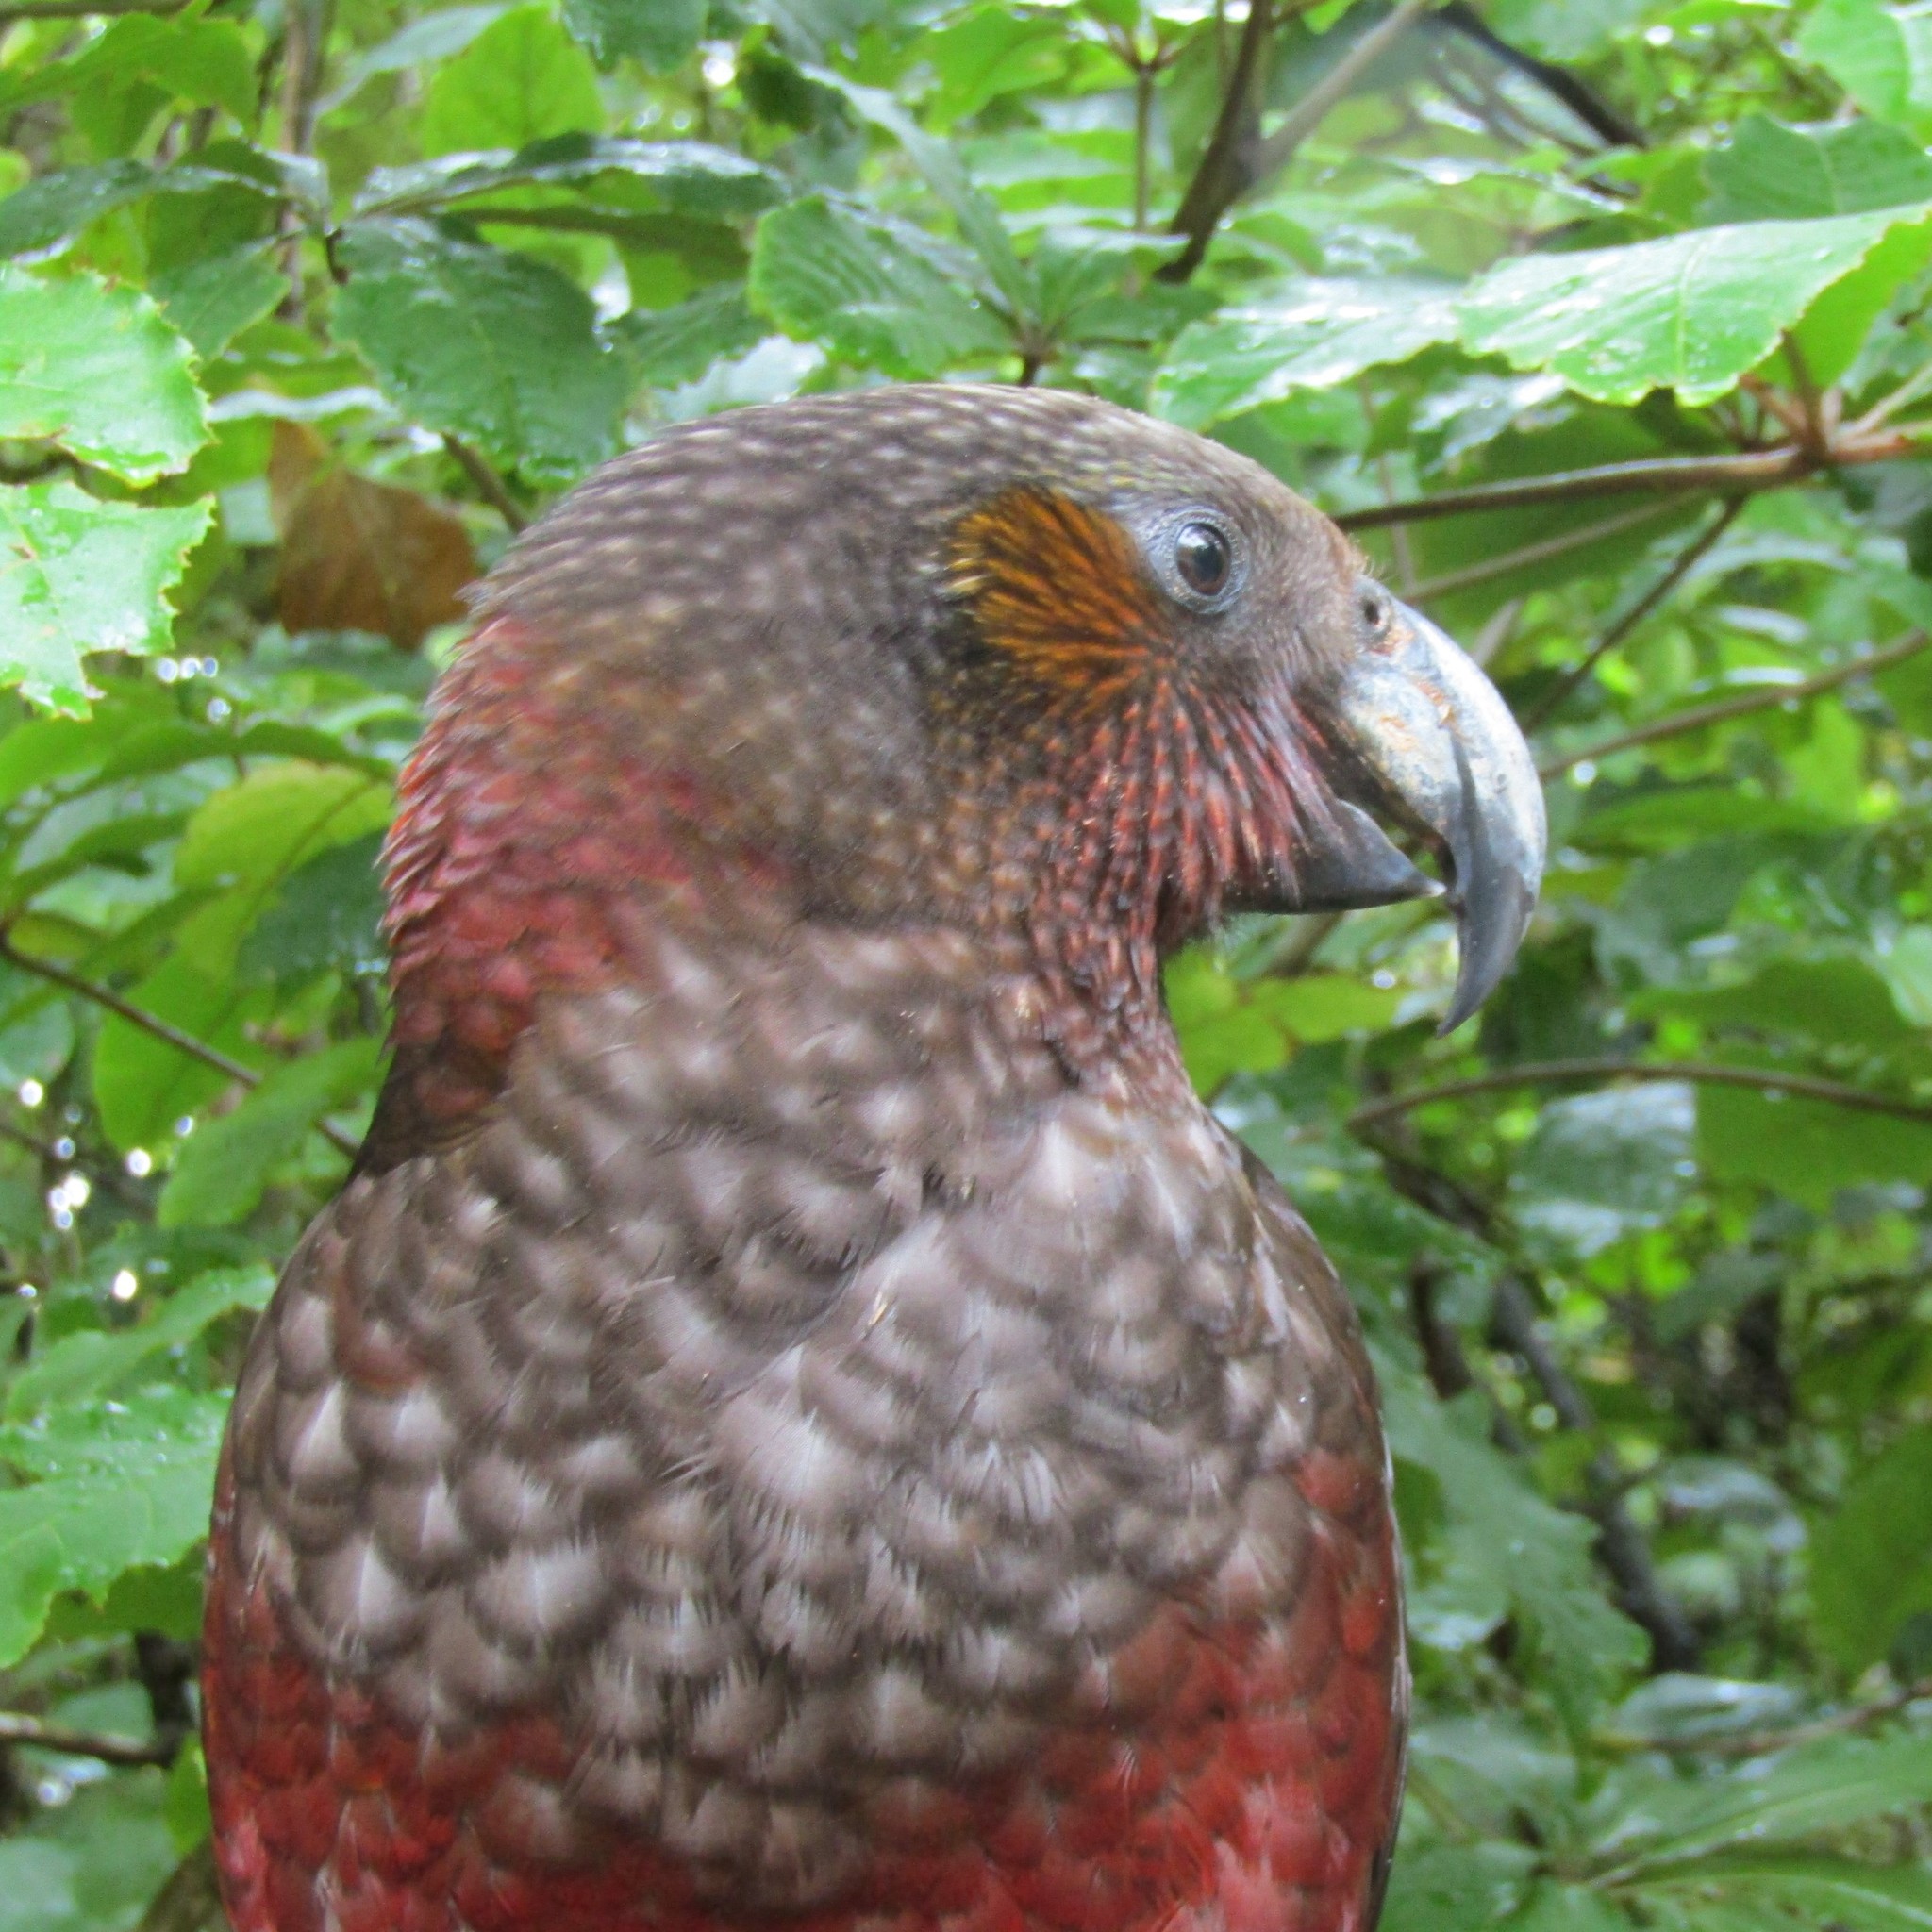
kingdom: Animalia
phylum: Chordata
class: Aves
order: Psittaciformes
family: Psittacidae
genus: Nestor
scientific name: Nestor meridionalis
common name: New zealand kaka
